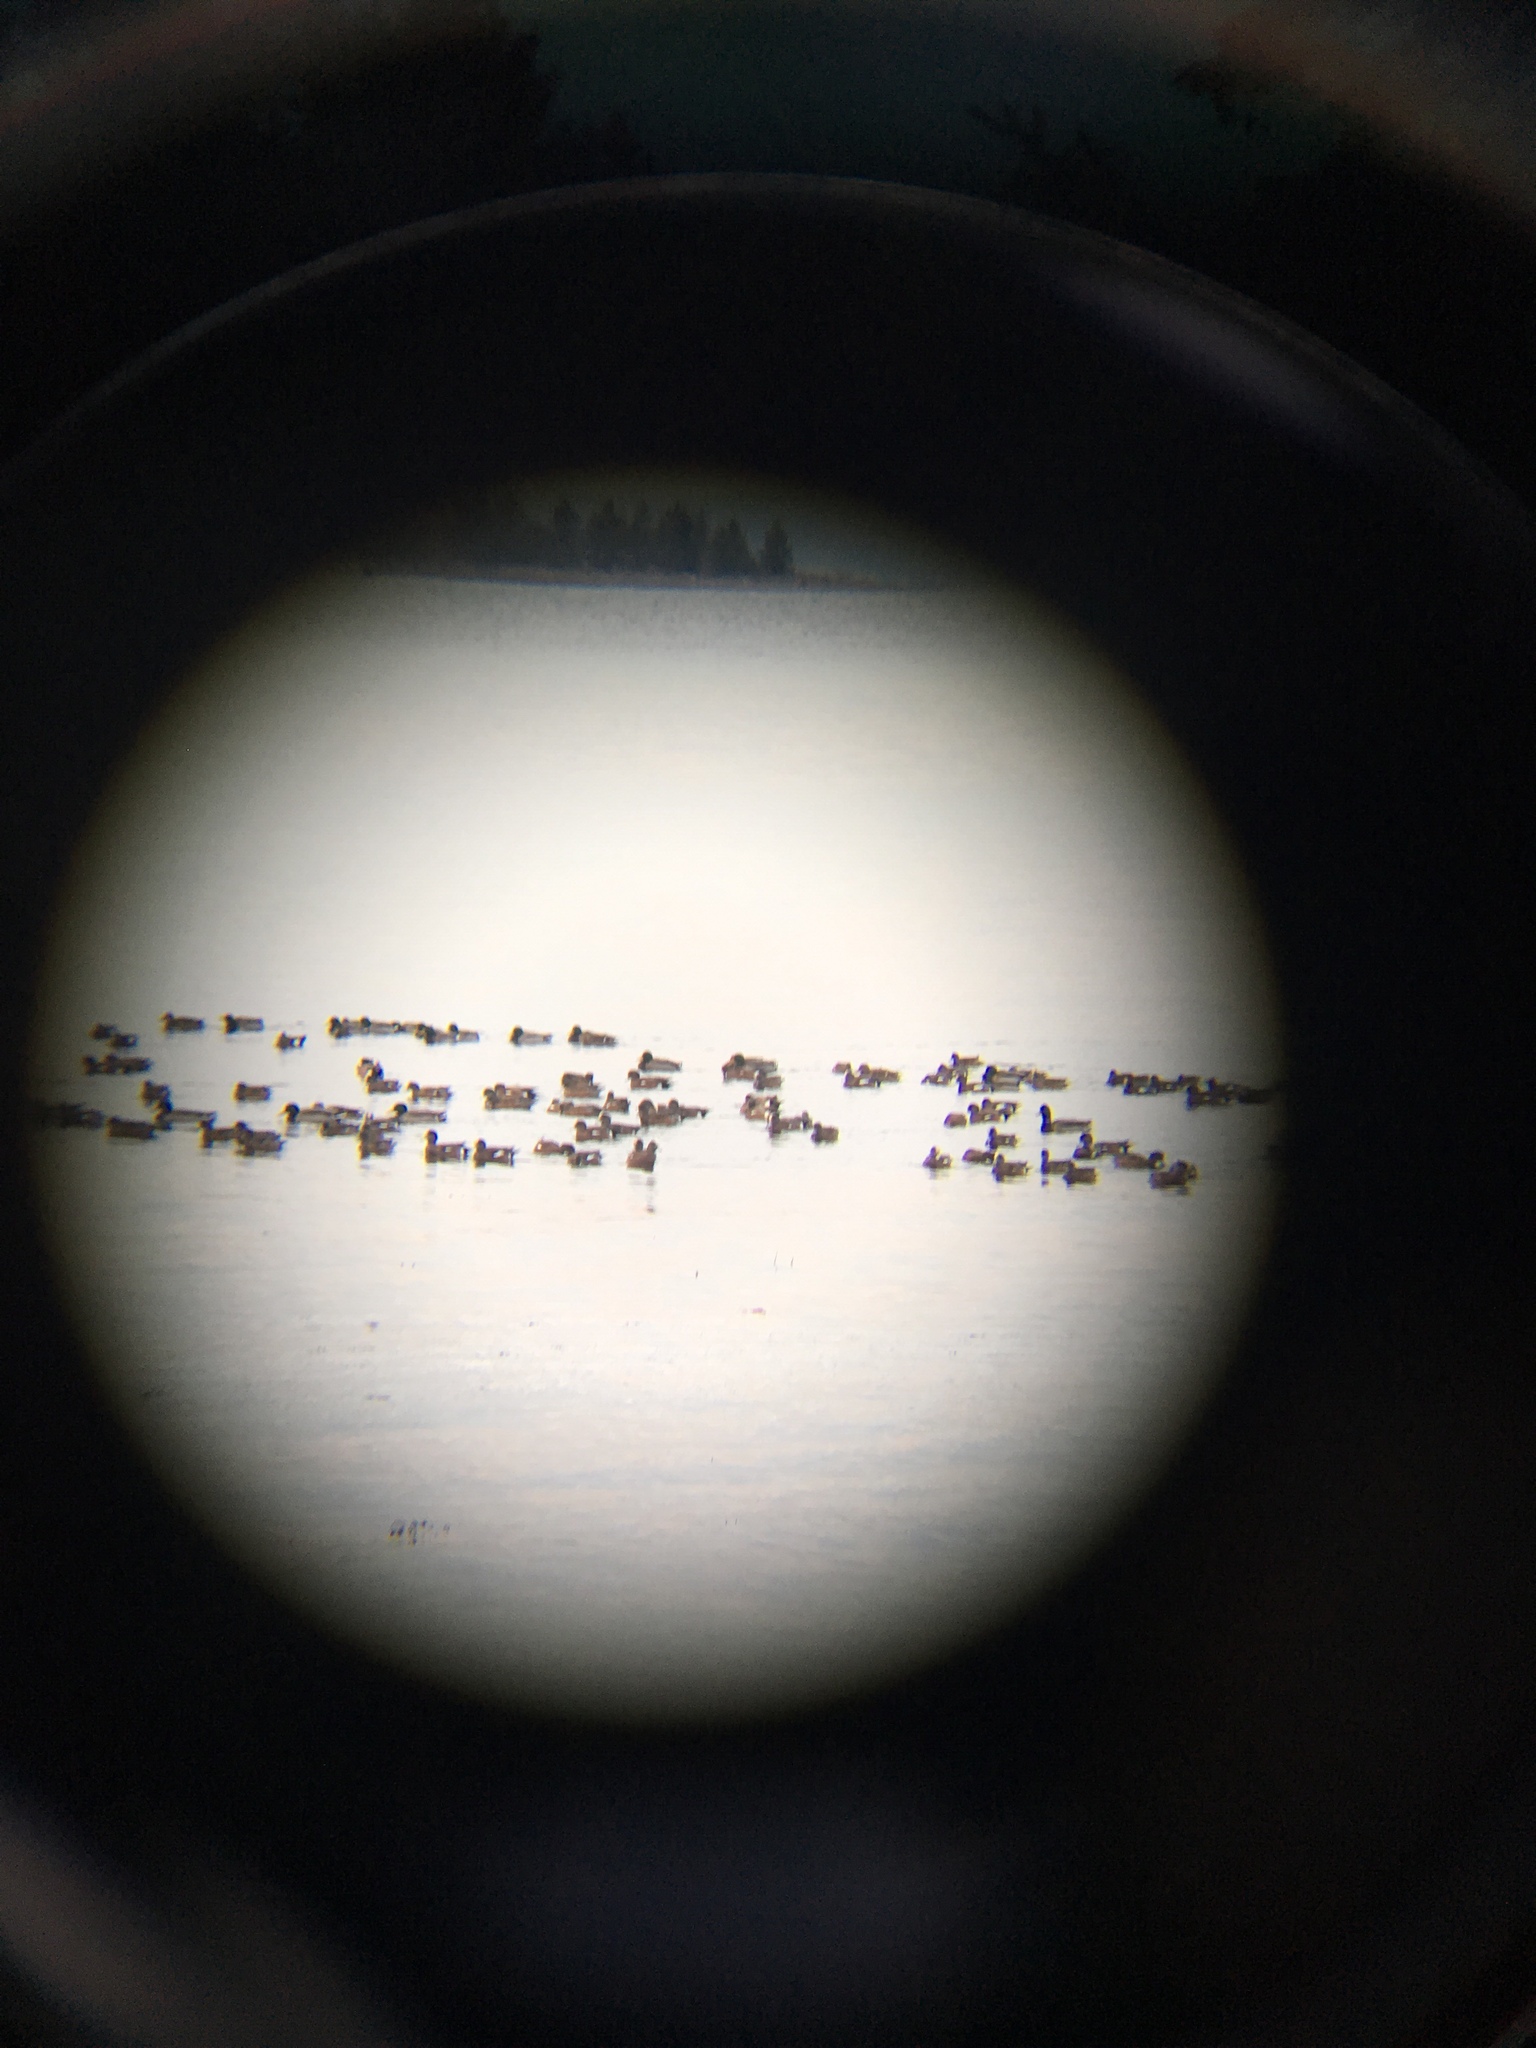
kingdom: Animalia
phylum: Chordata
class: Aves
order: Anseriformes
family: Anatidae
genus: Mareca
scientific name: Mareca americana
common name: American wigeon
